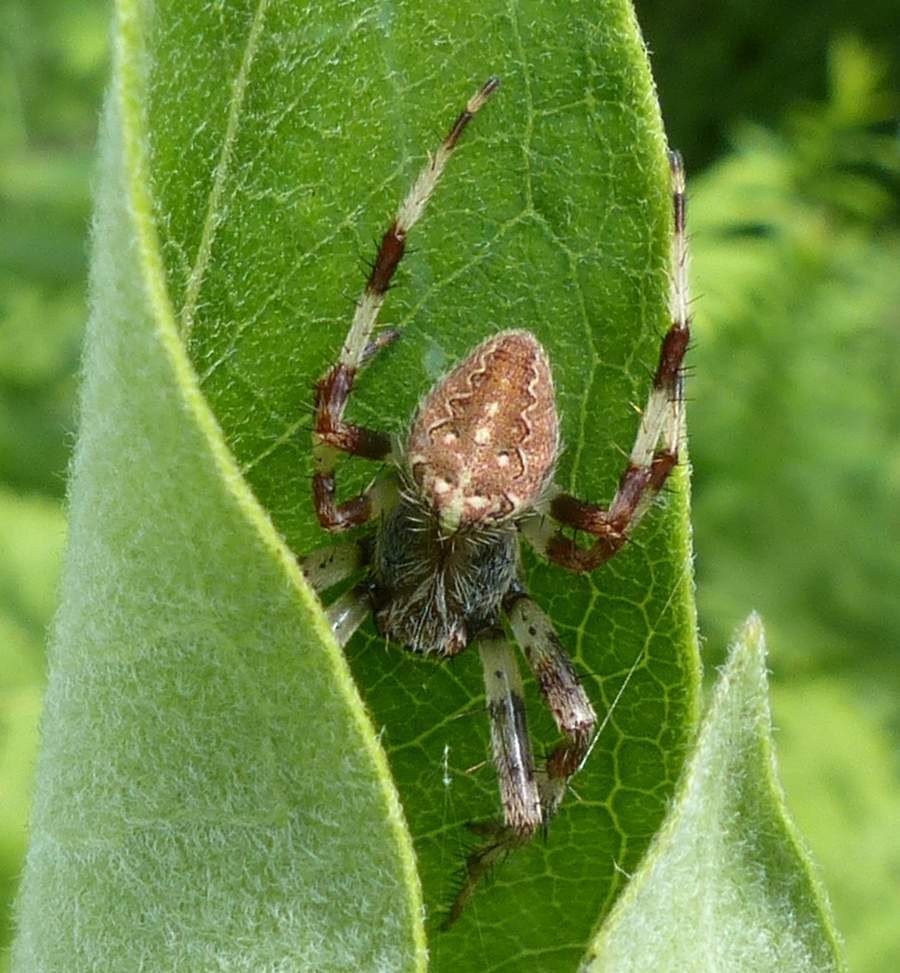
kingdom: Animalia
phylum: Arthropoda
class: Arachnida
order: Araneae
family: Araneidae
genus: Araneus
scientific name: Araneus marmoreus
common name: Marbled orbweaver
